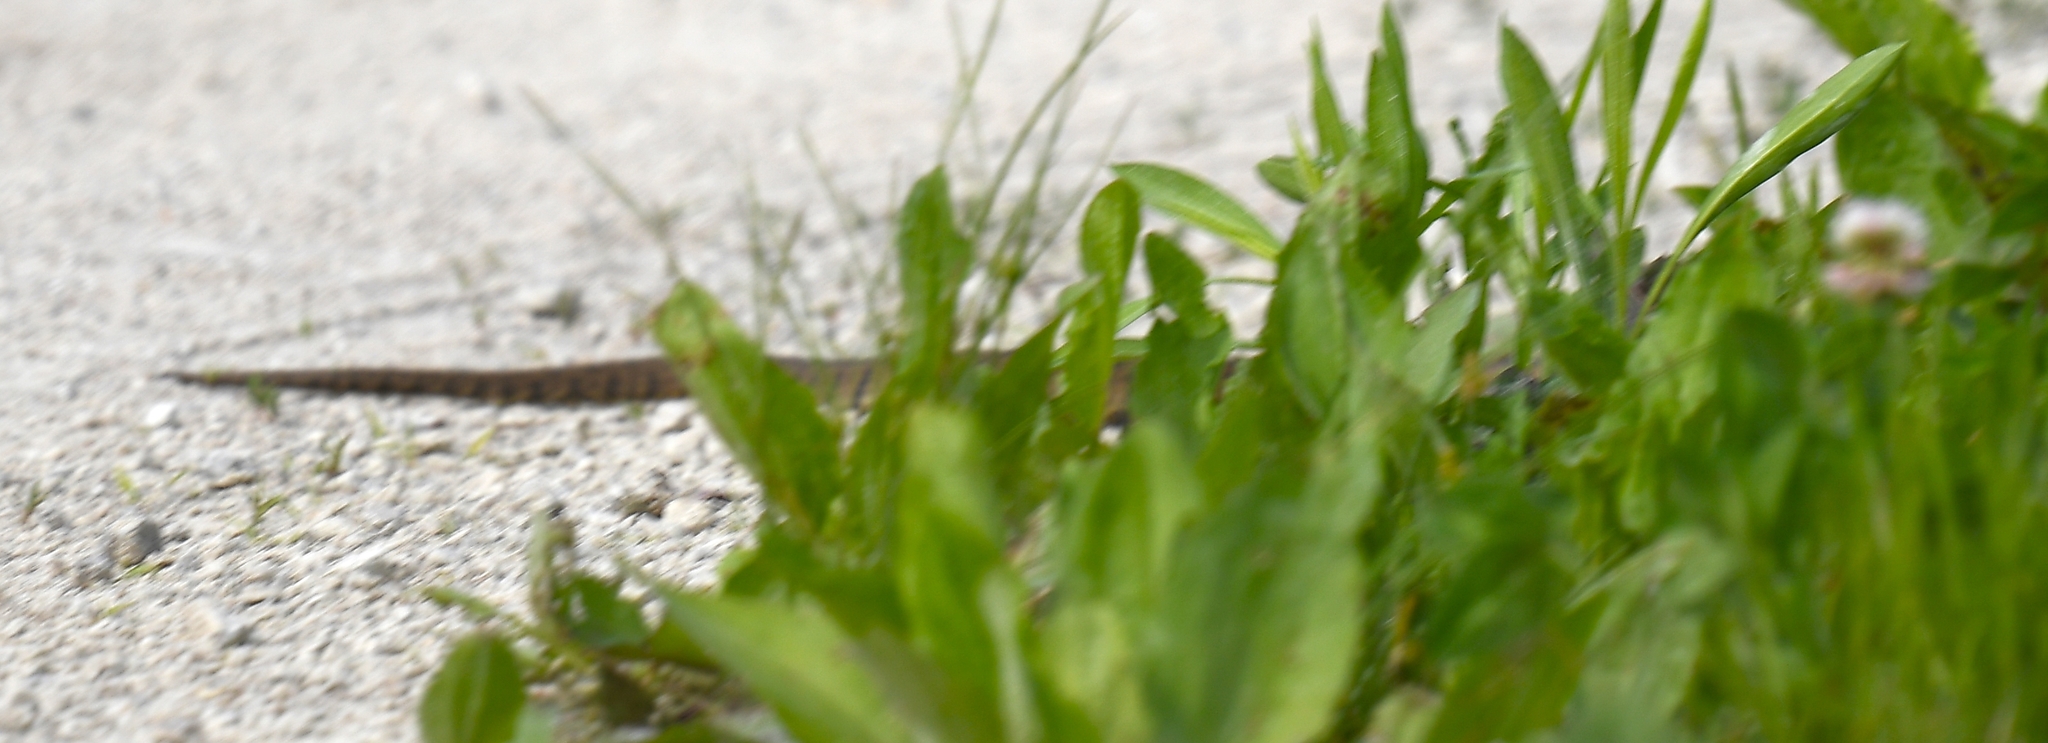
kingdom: Animalia
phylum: Chordata
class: Squamata
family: Colubridae
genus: Nerodia
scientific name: Nerodia rhombifer
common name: Diamondback water snake
